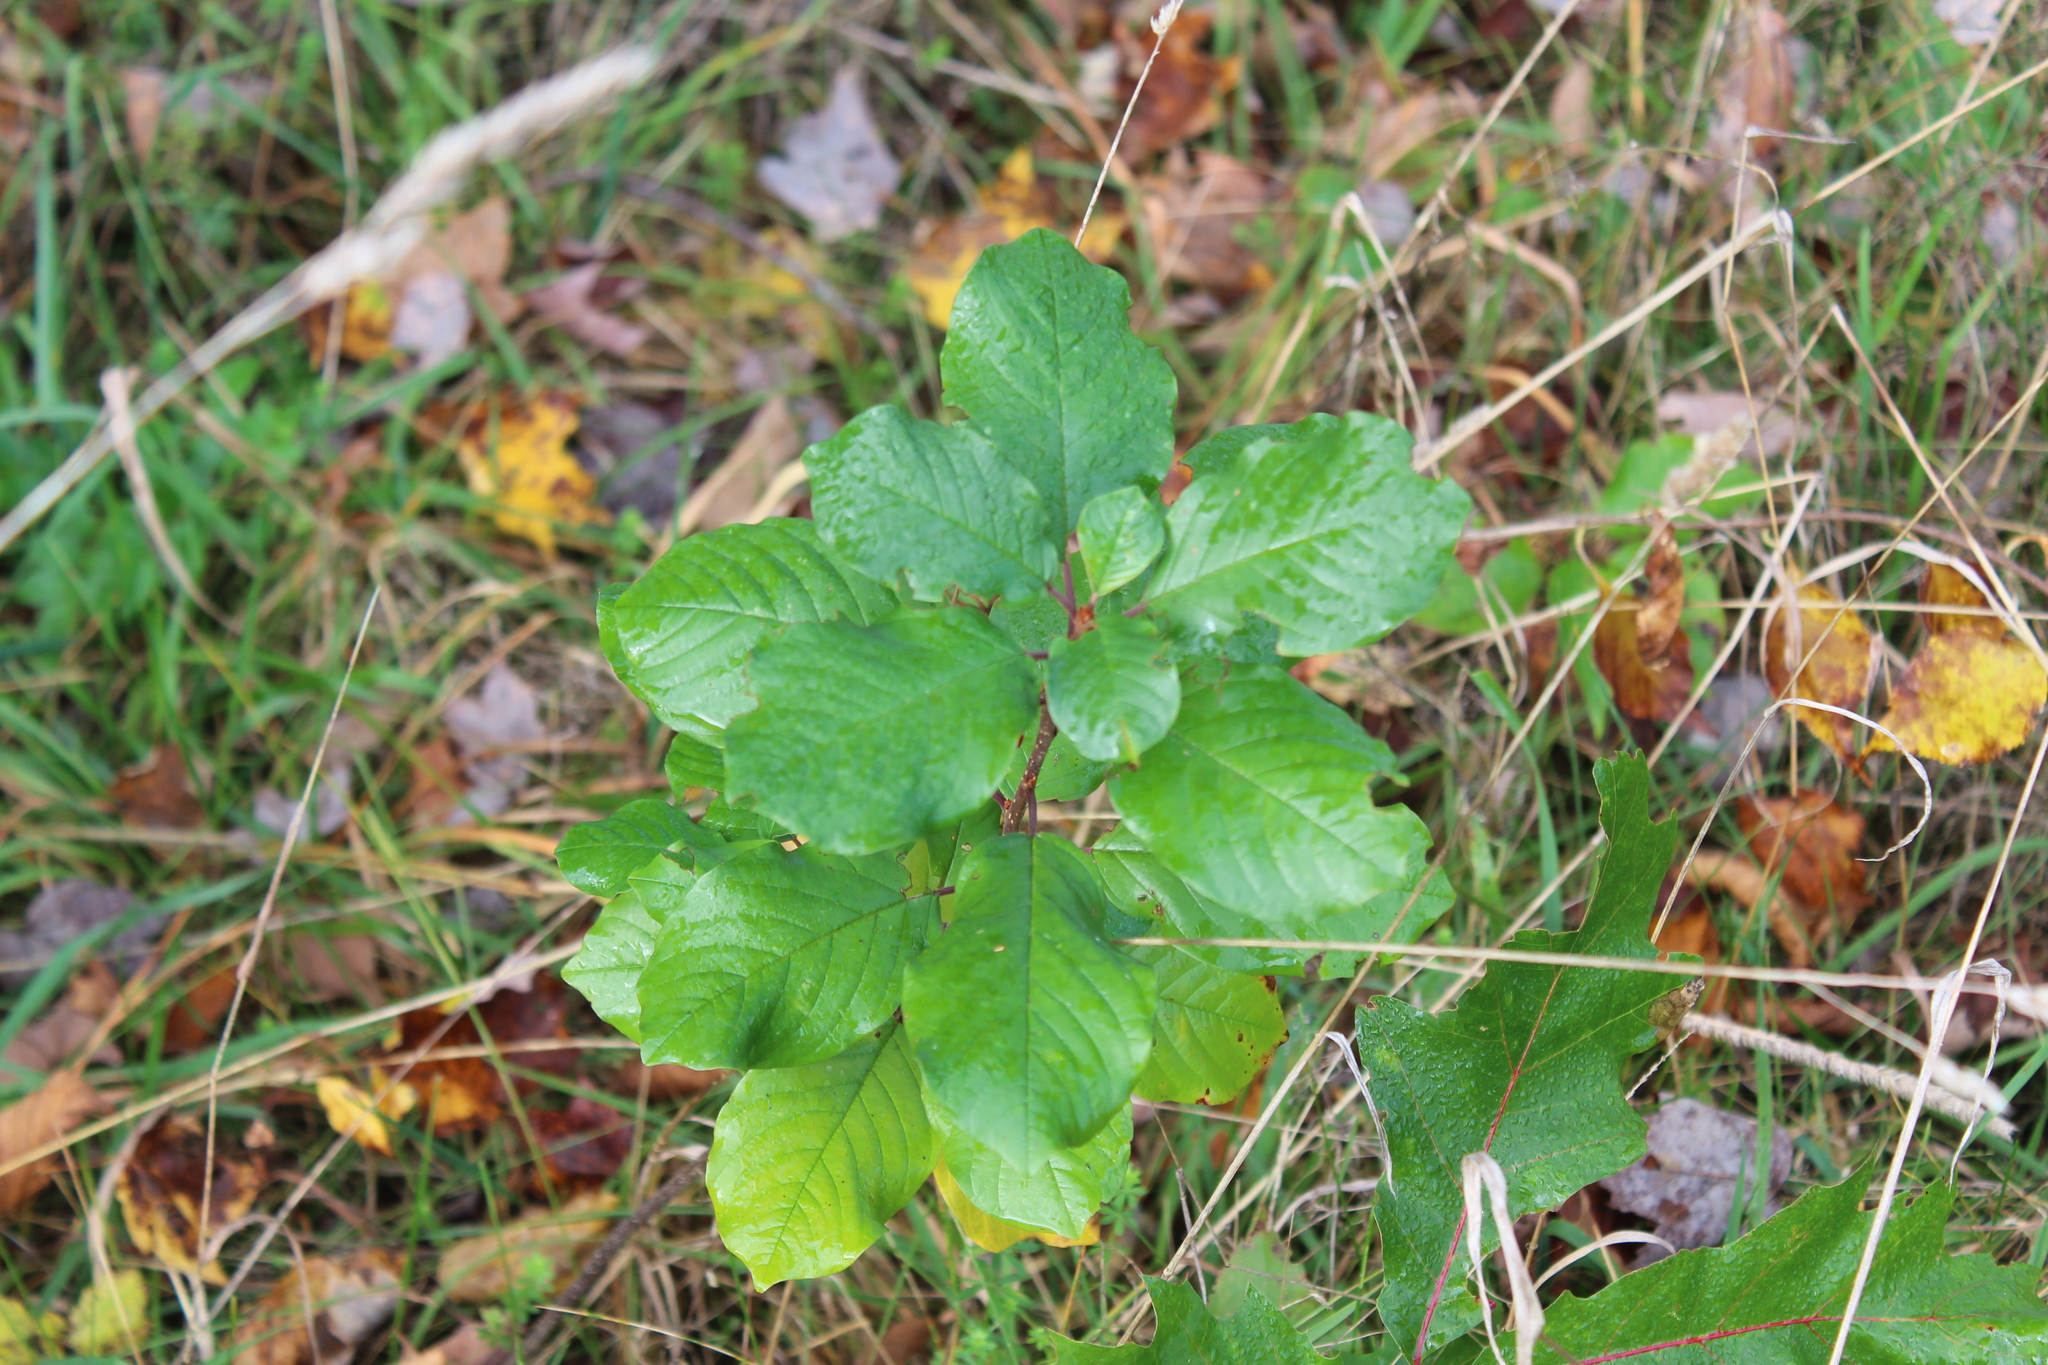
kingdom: Plantae
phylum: Tracheophyta
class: Magnoliopsida
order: Rosales
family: Rhamnaceae
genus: Frangula
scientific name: Frangula alnus
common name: Alder buckthorn
